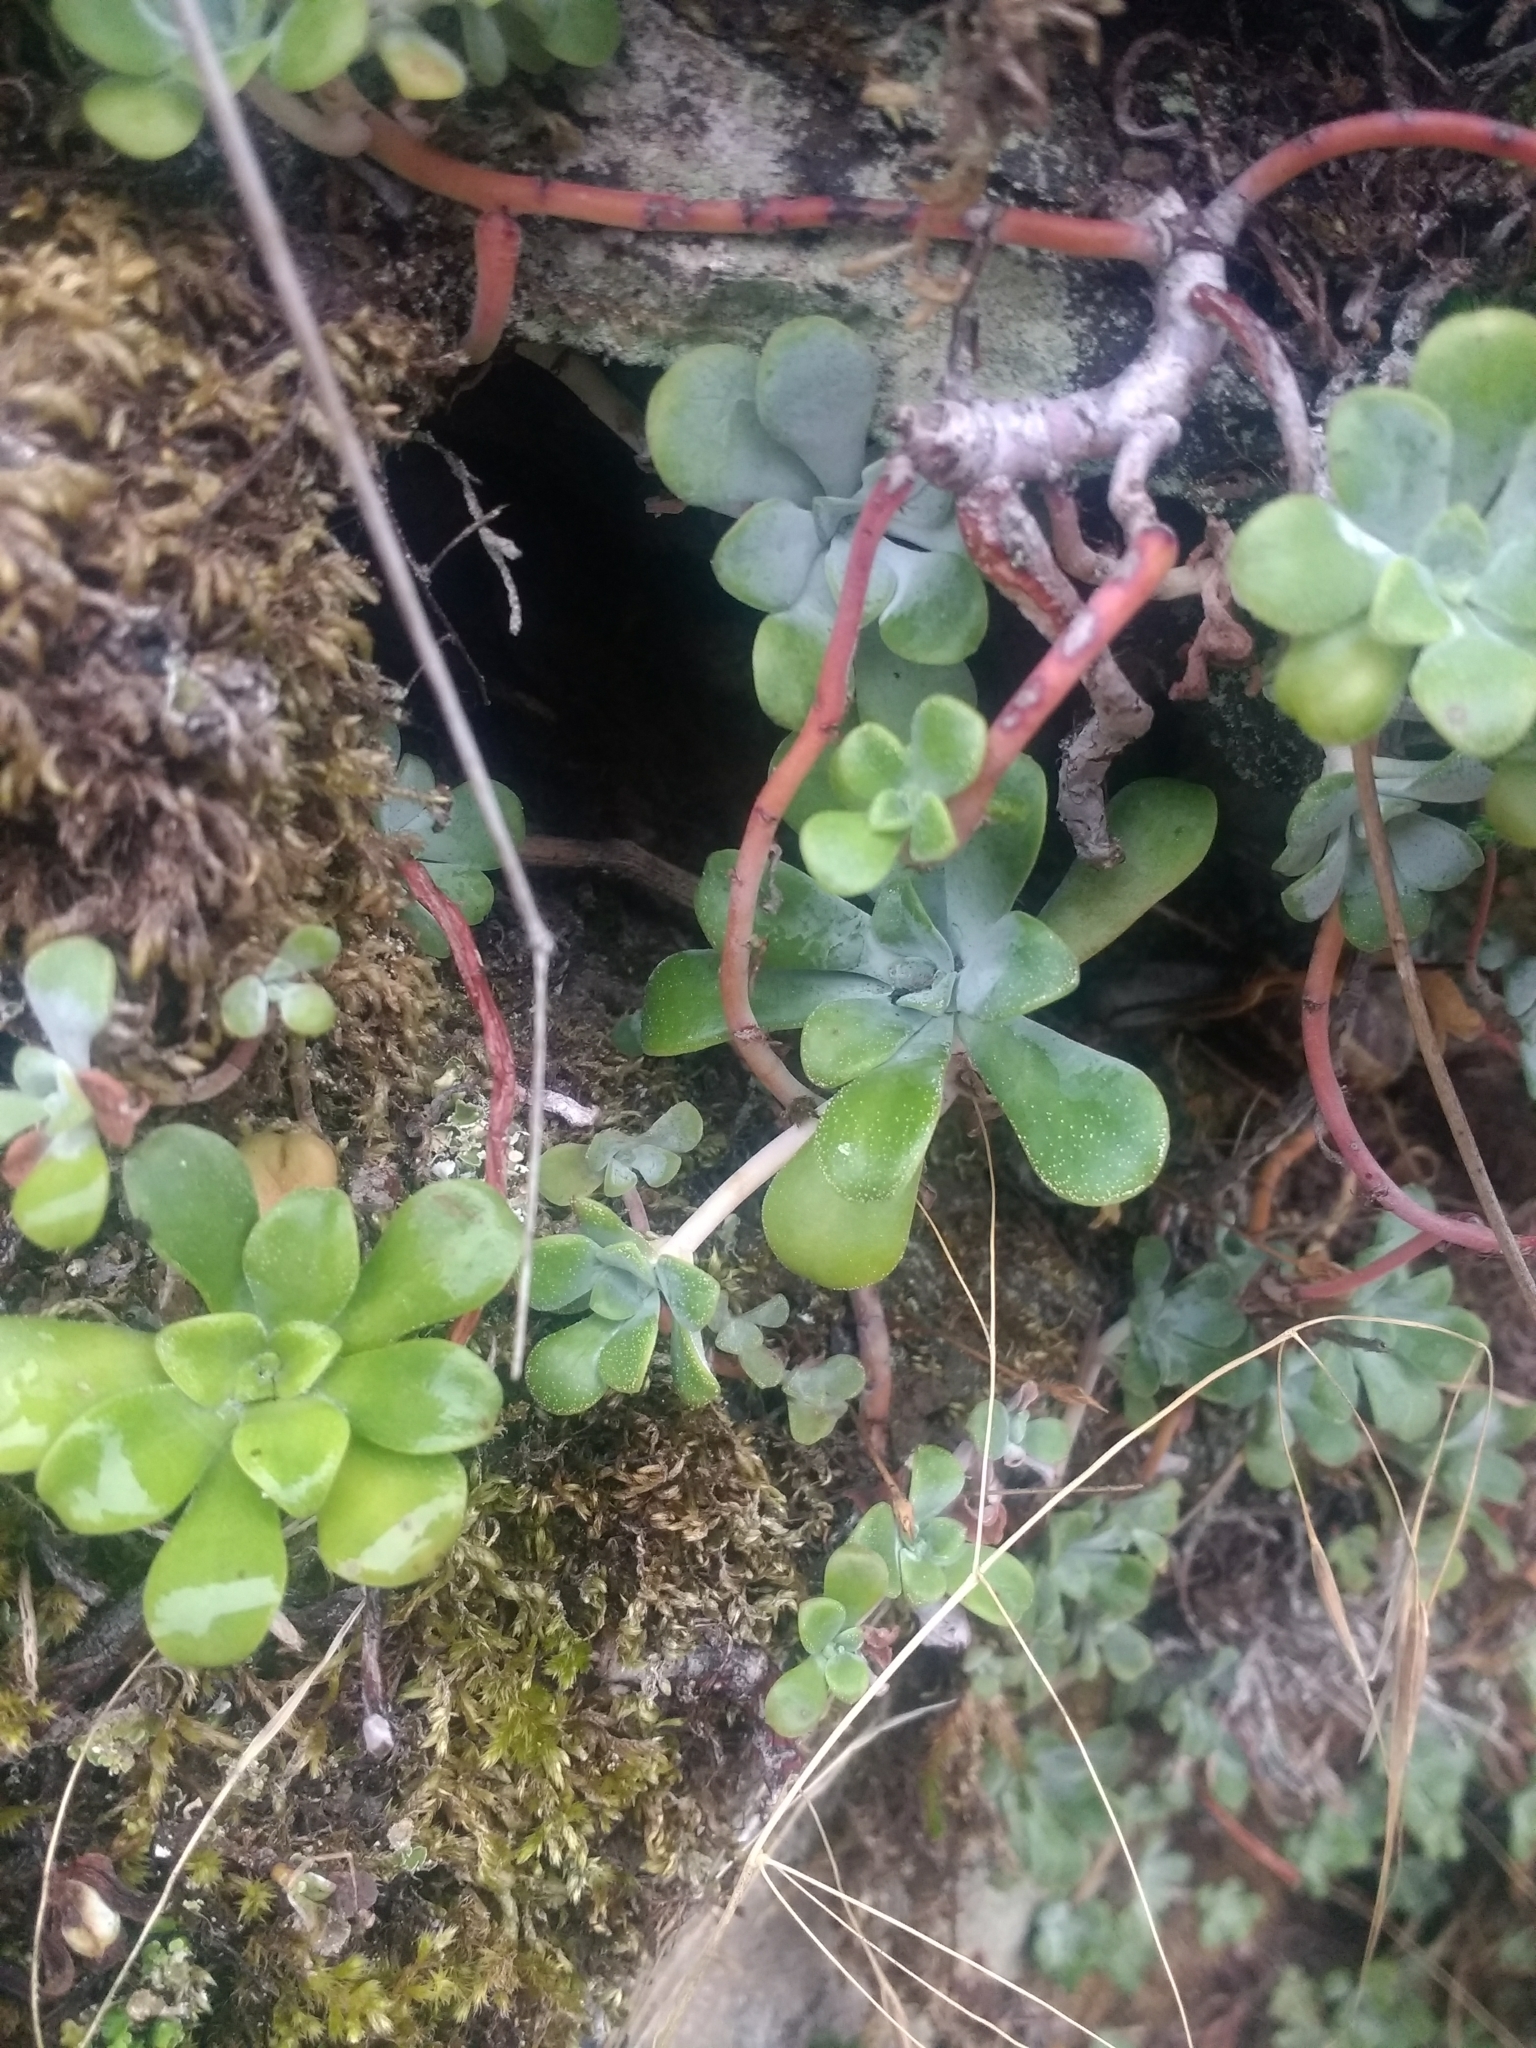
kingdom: Plantae
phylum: Tracheophyta
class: Magnoliopsida
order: Saxifragales
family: Crassulaceae
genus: Sedum
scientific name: Sedum spathulifolium
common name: Colorado stonecrop
